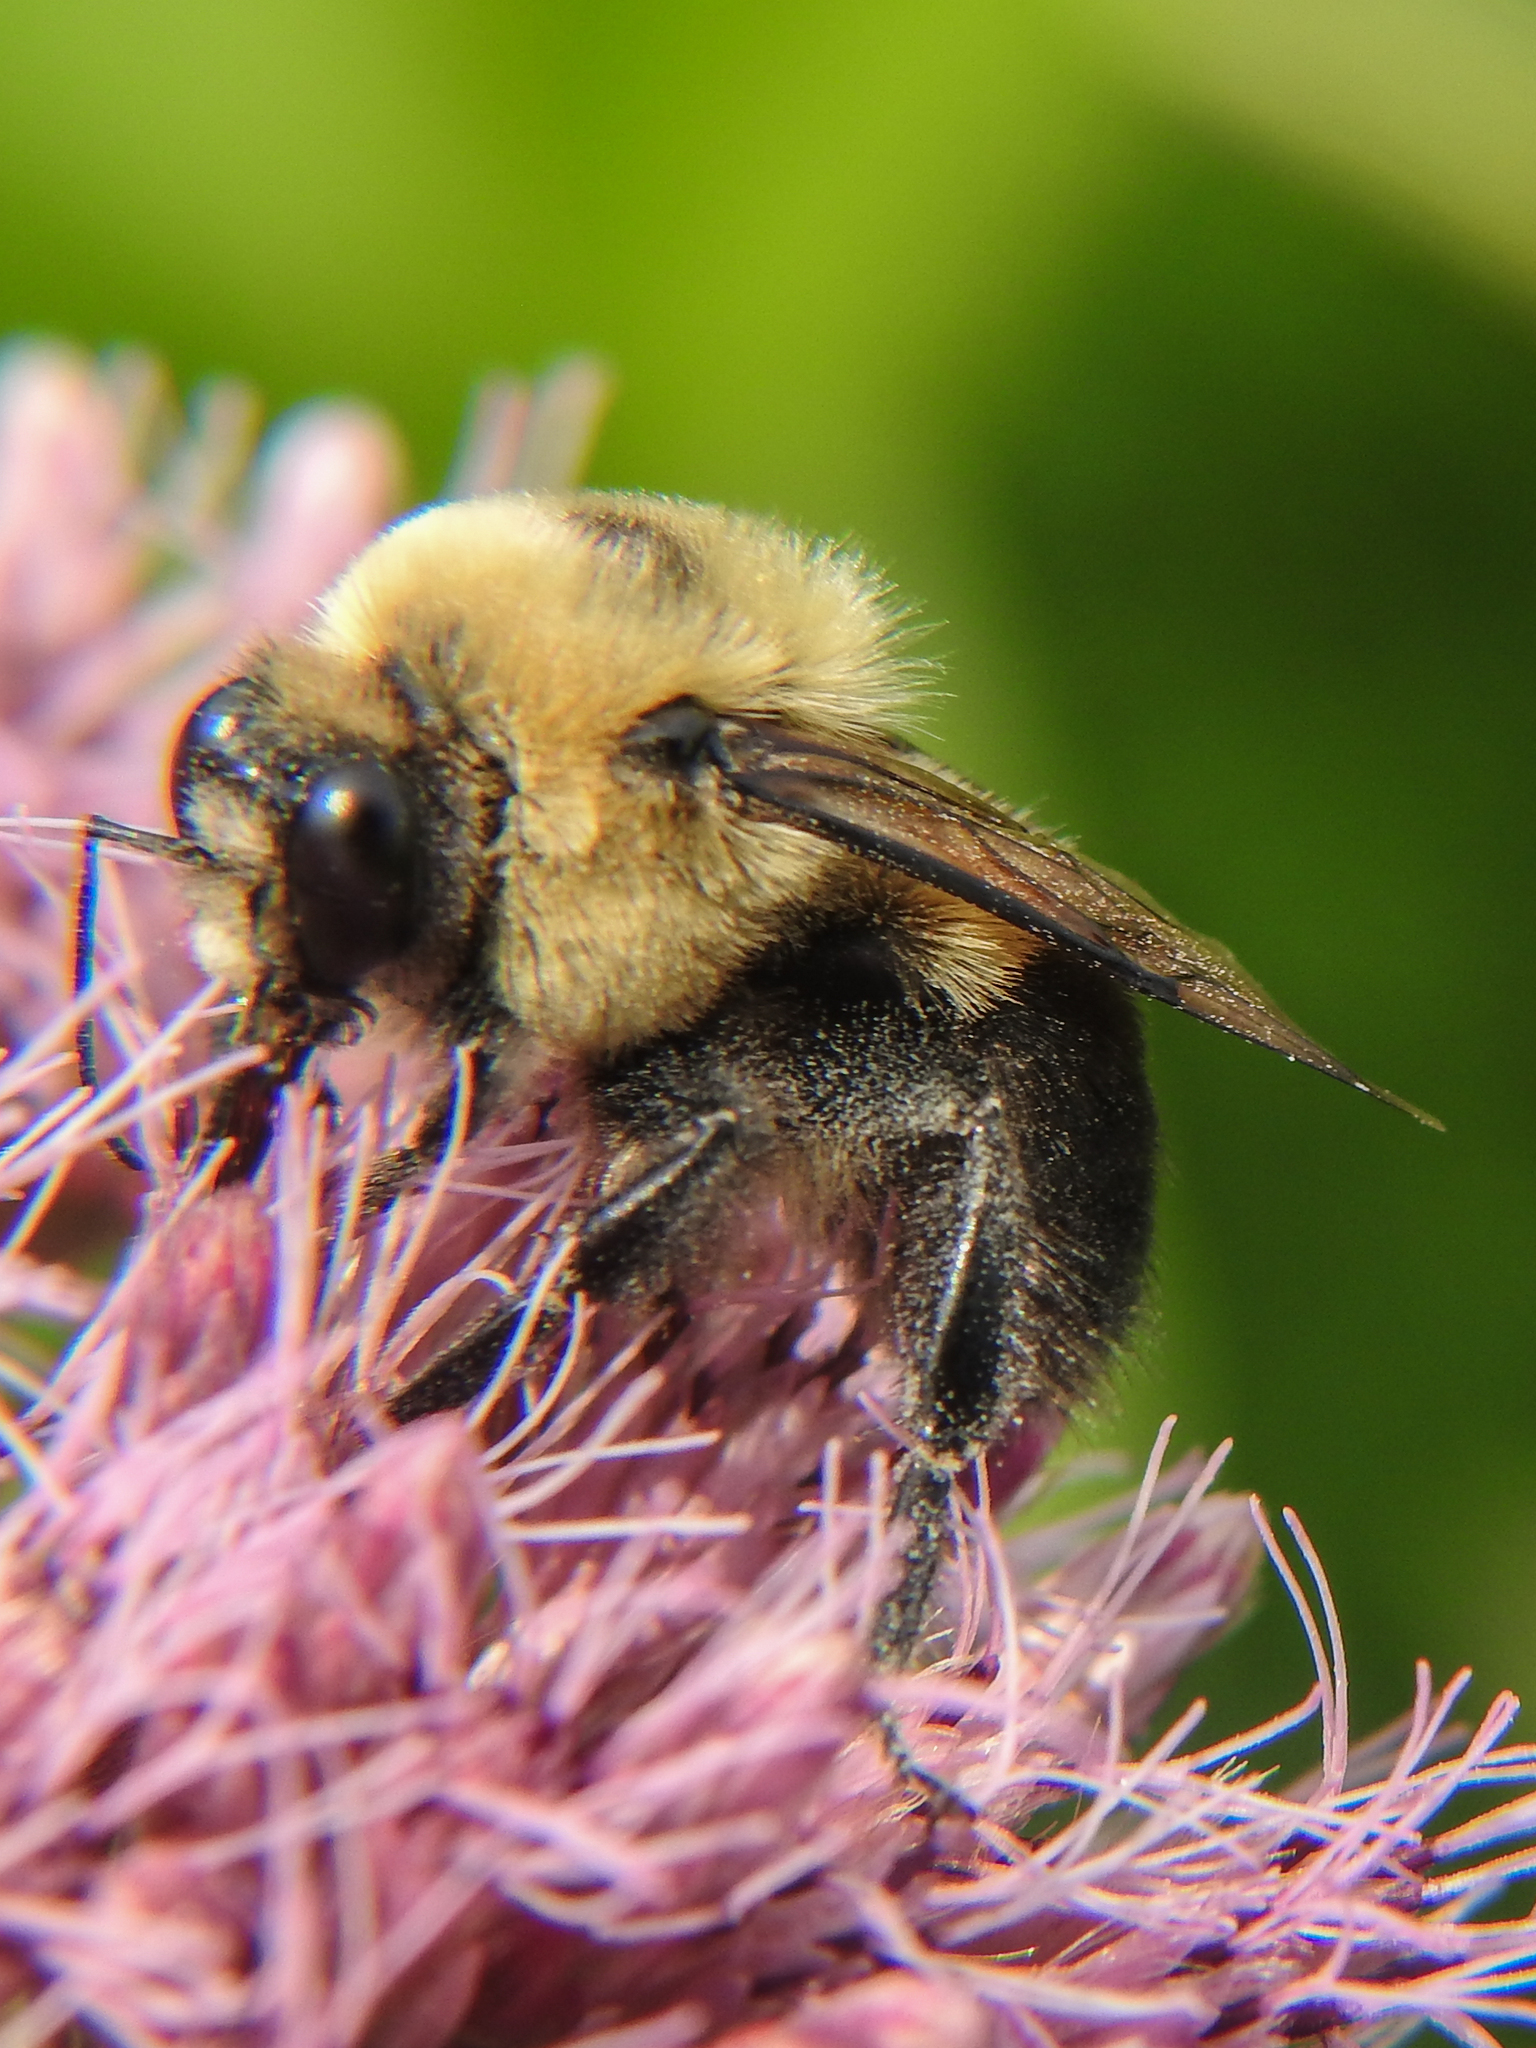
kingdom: Animalia
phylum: Arthropoda
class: Insecta
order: Hymenoptera
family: Apidae
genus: Bombus
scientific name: Bombus griseocollis
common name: Brown-belted bumble bee
